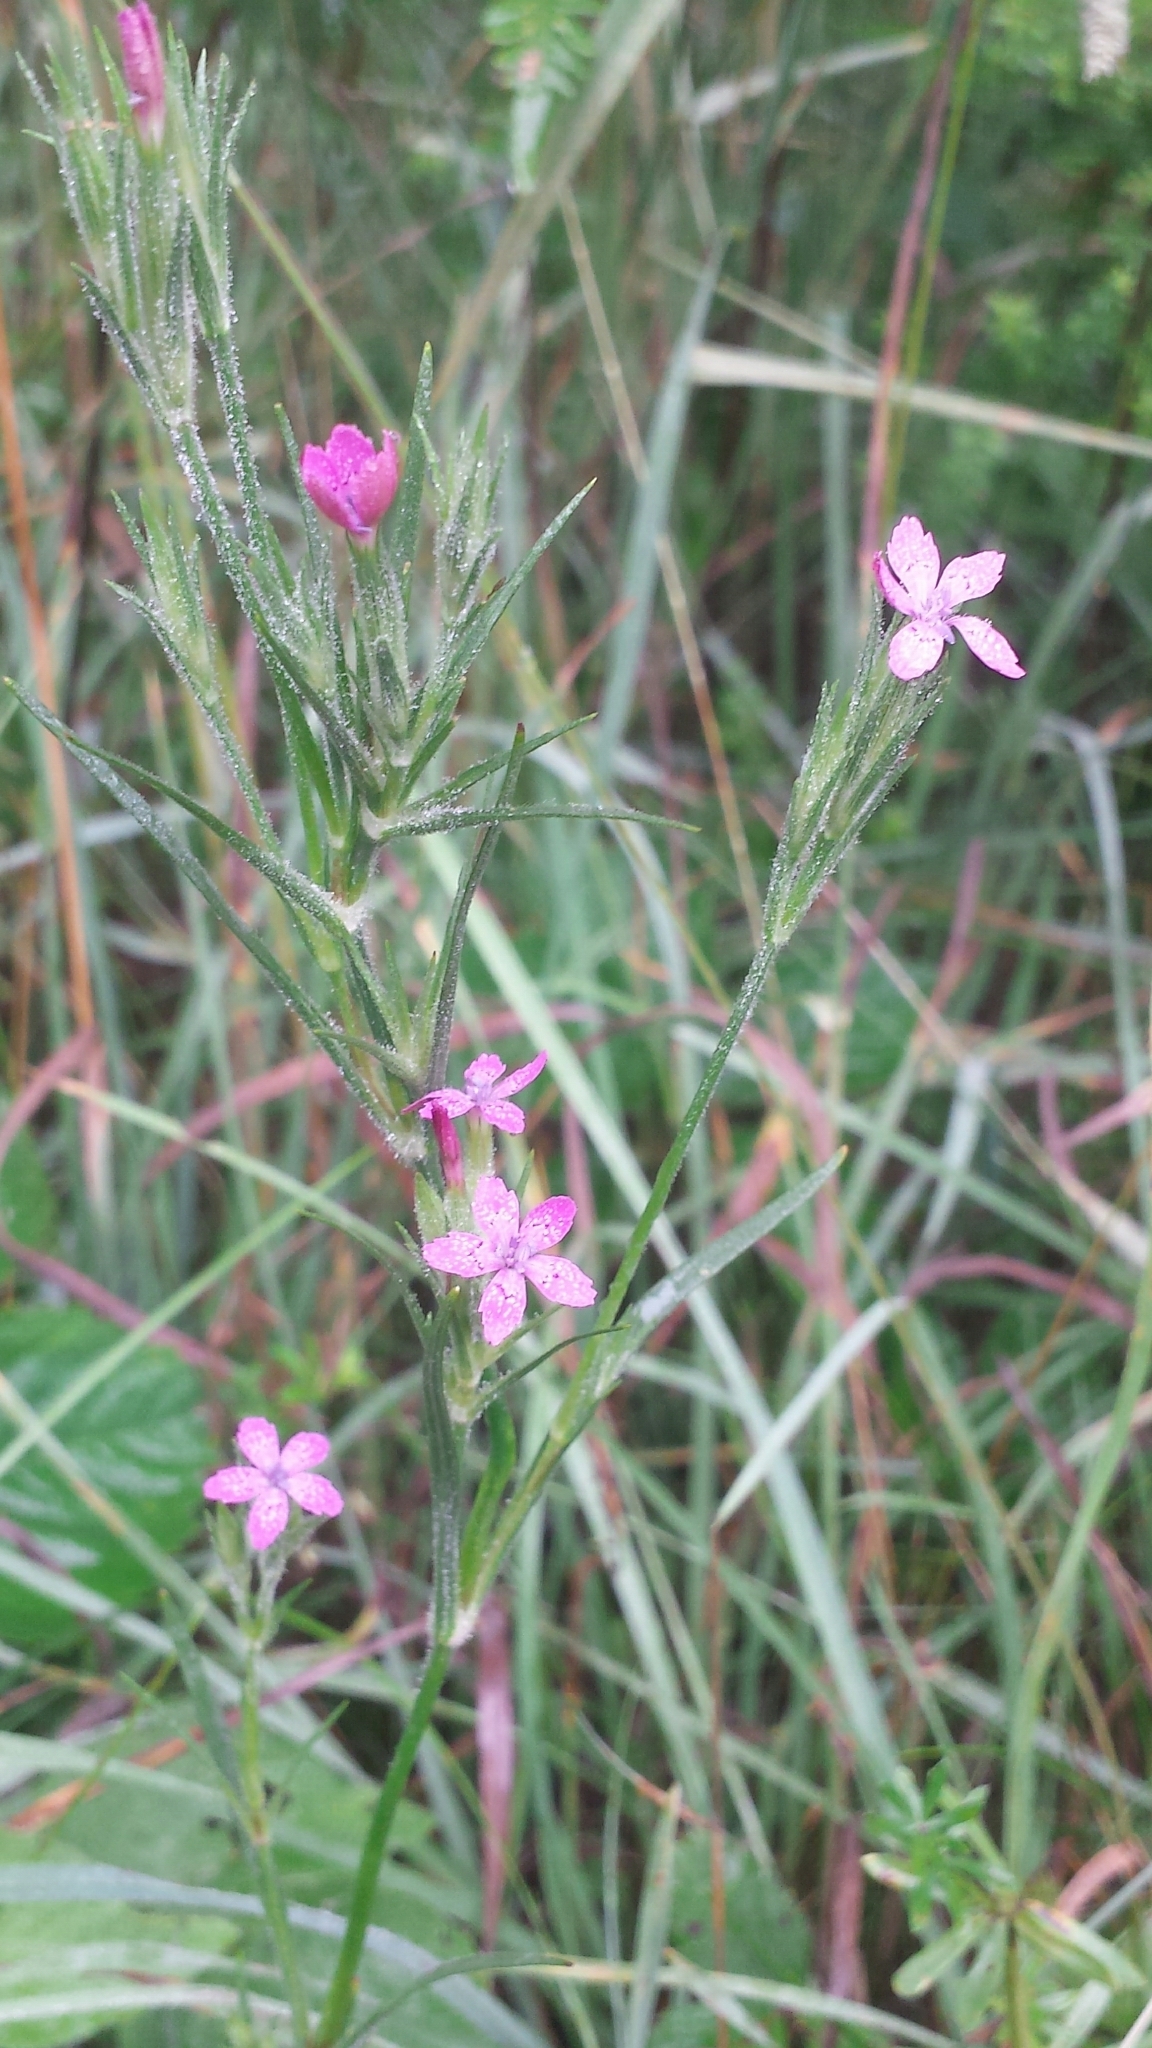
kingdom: Plantae
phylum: Tracheophyta
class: Magnoliopsida
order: Caryophyllales
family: Caryophyllaceae
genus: Dianthus
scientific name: Dianthus armeria
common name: Deptford pink
